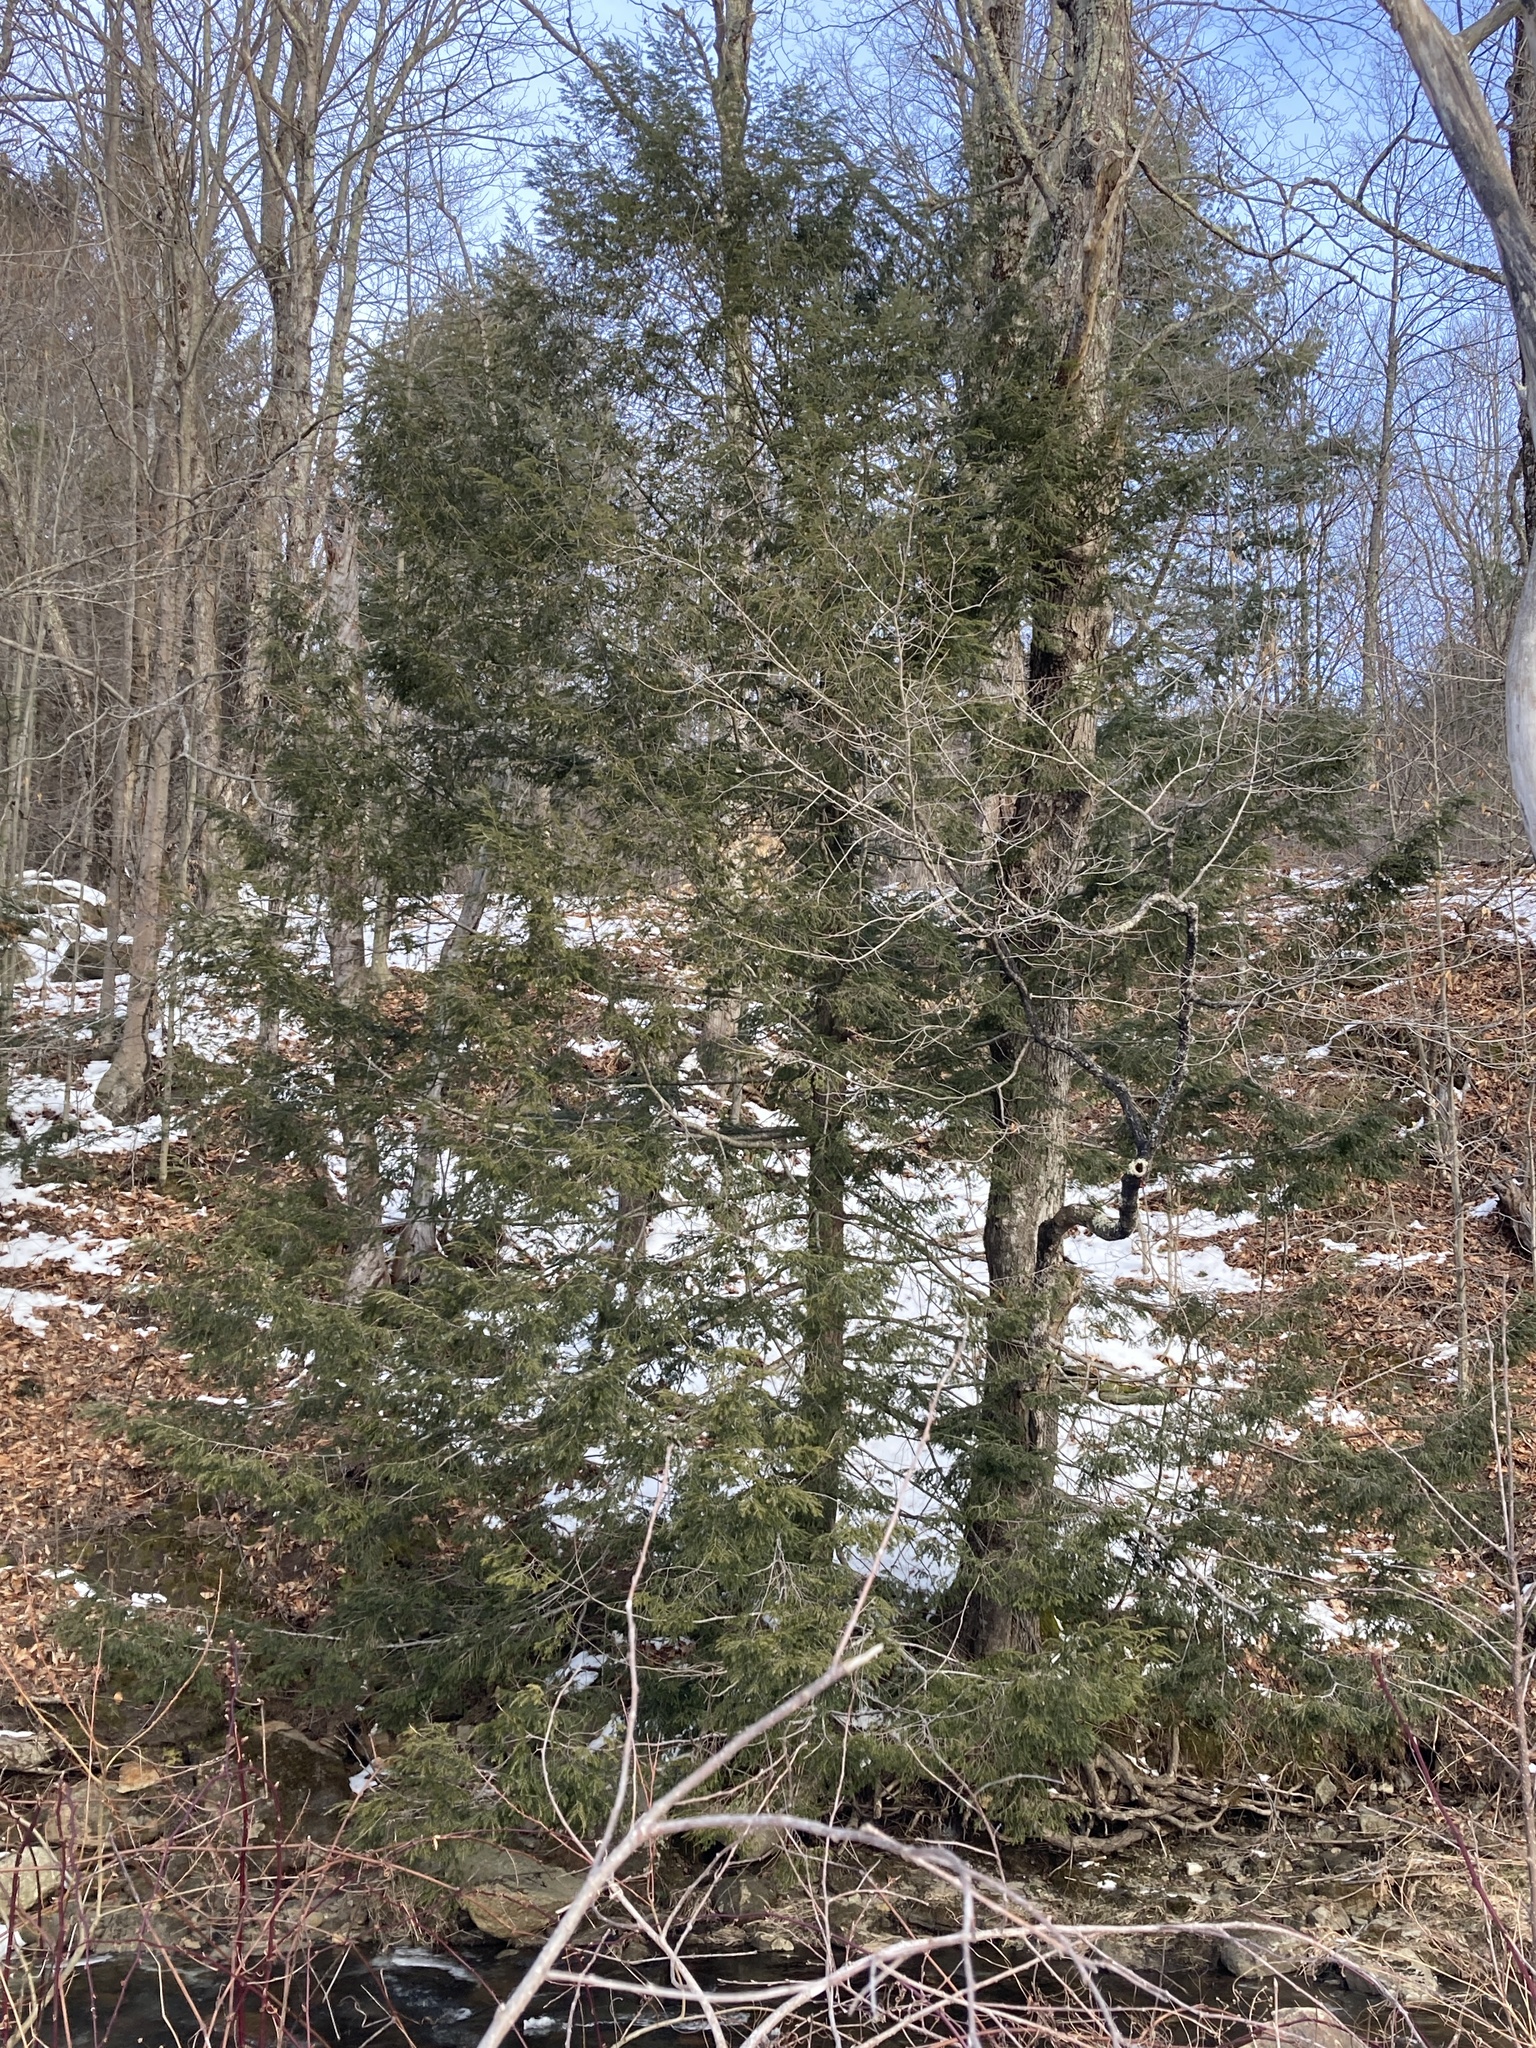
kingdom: Plantae
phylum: Tracheophyta
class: Pinopsida
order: Pinales
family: Pinaceae
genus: Tsuga
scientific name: Tsuga canadensis
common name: Eastern hemlock
